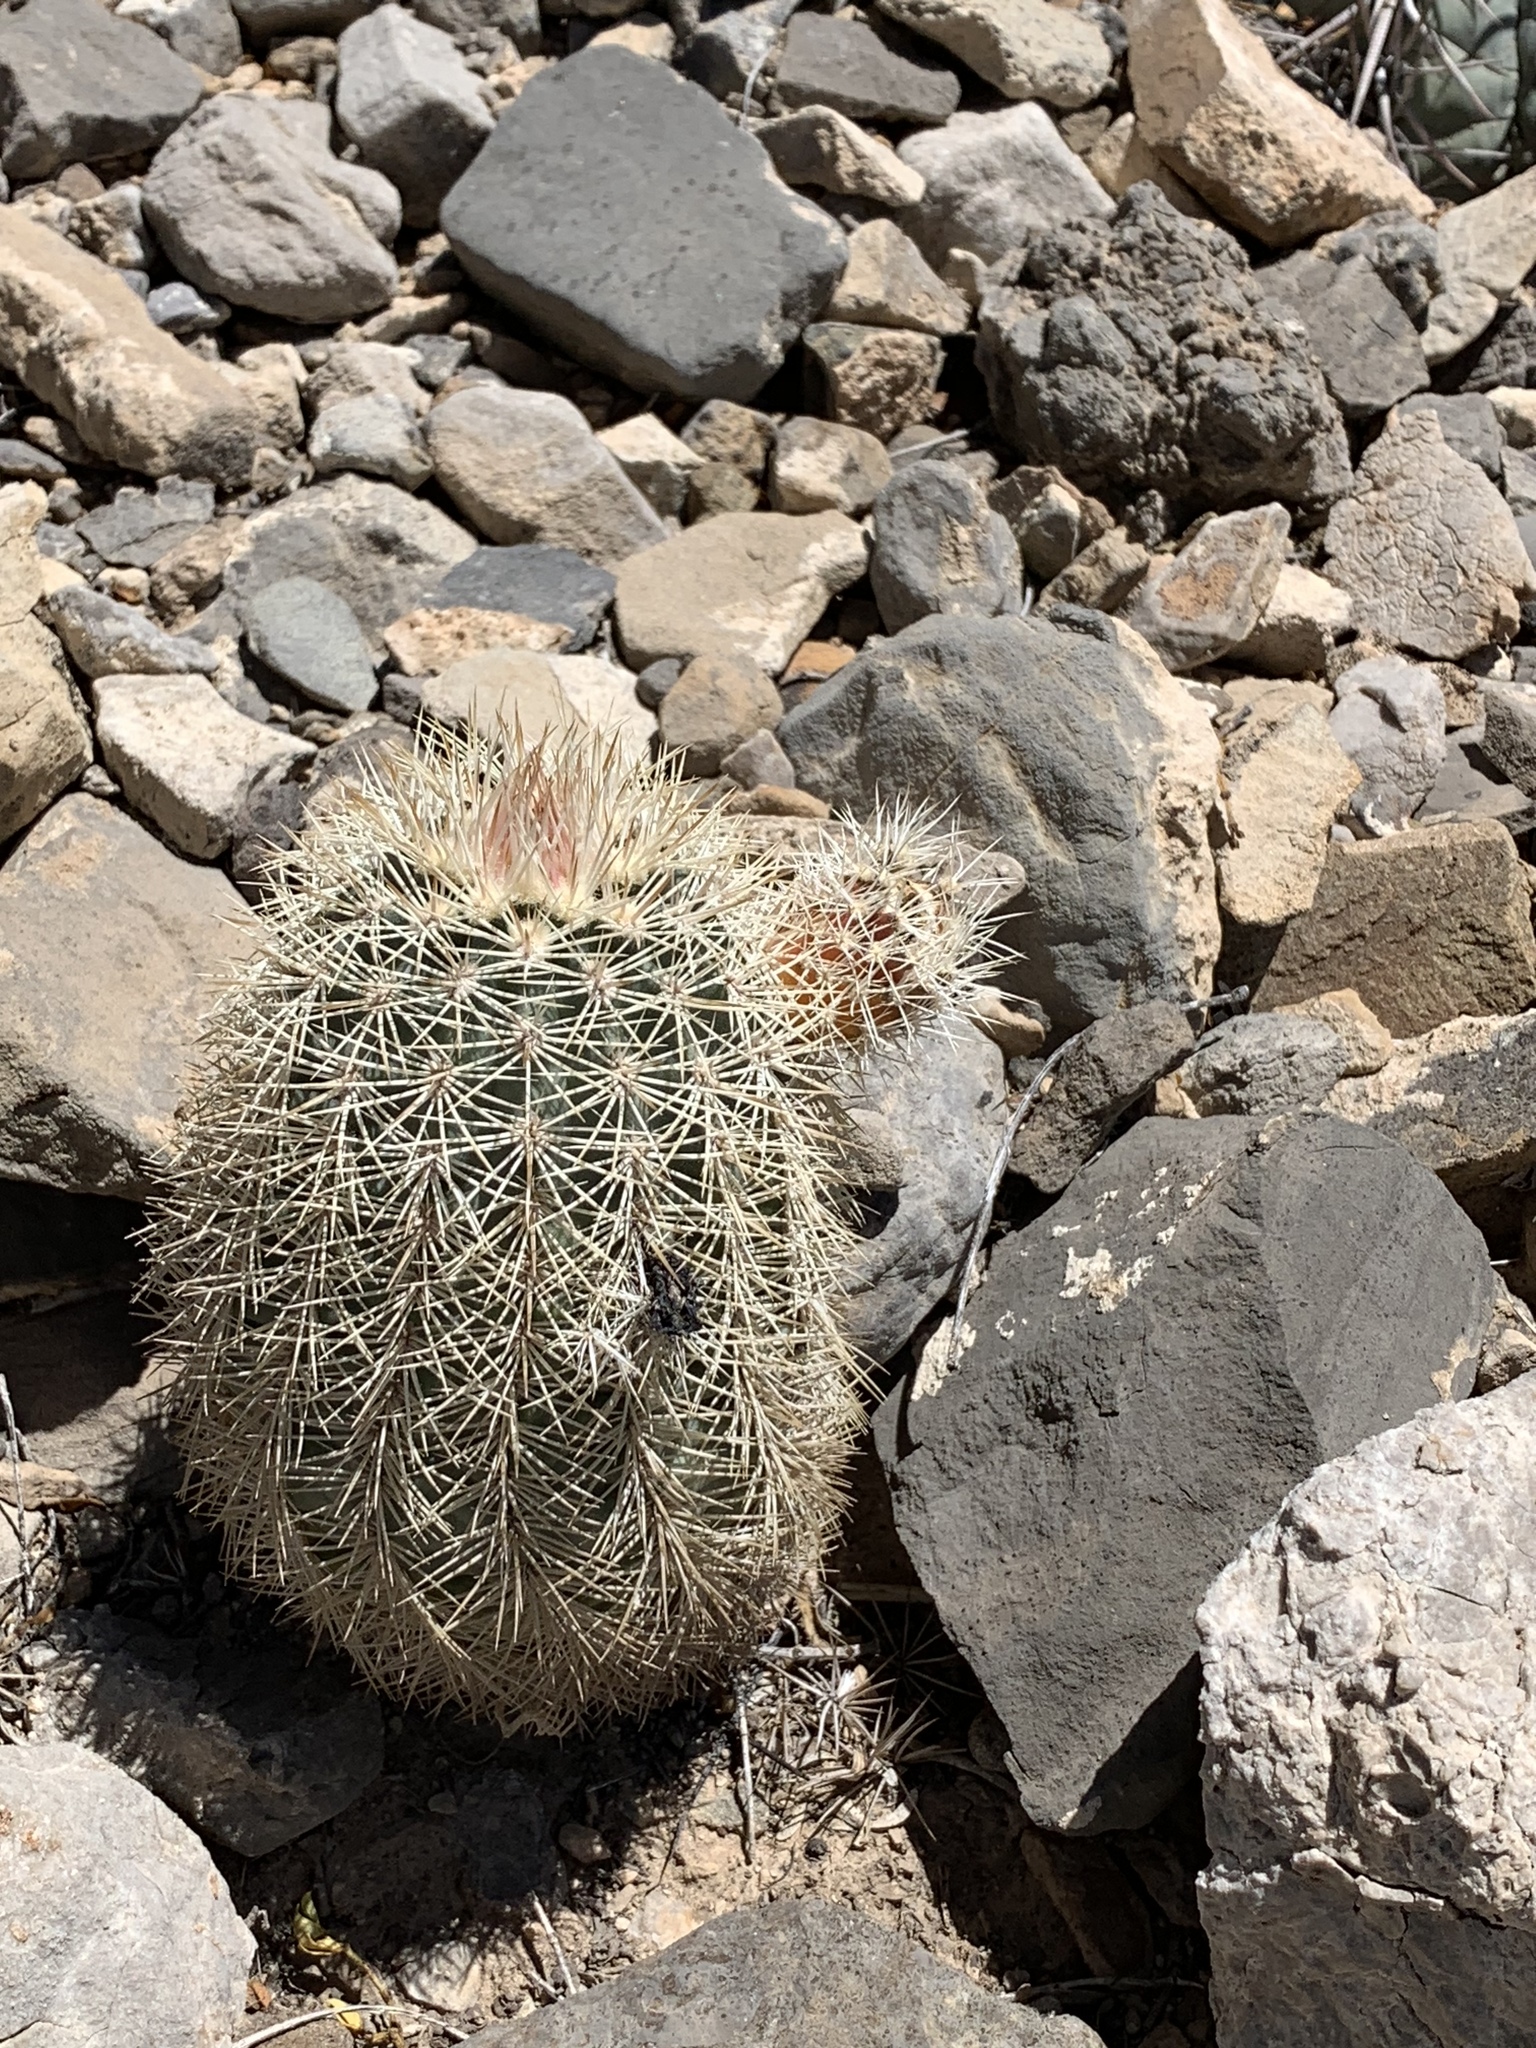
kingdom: Plantae
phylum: Tracheophyta
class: Magnoliopsida
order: Caryophyllales
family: Cactaceae
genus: Echinocereus
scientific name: Echinocereus dasyacanthus
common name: Spiny hedgehog cactus
